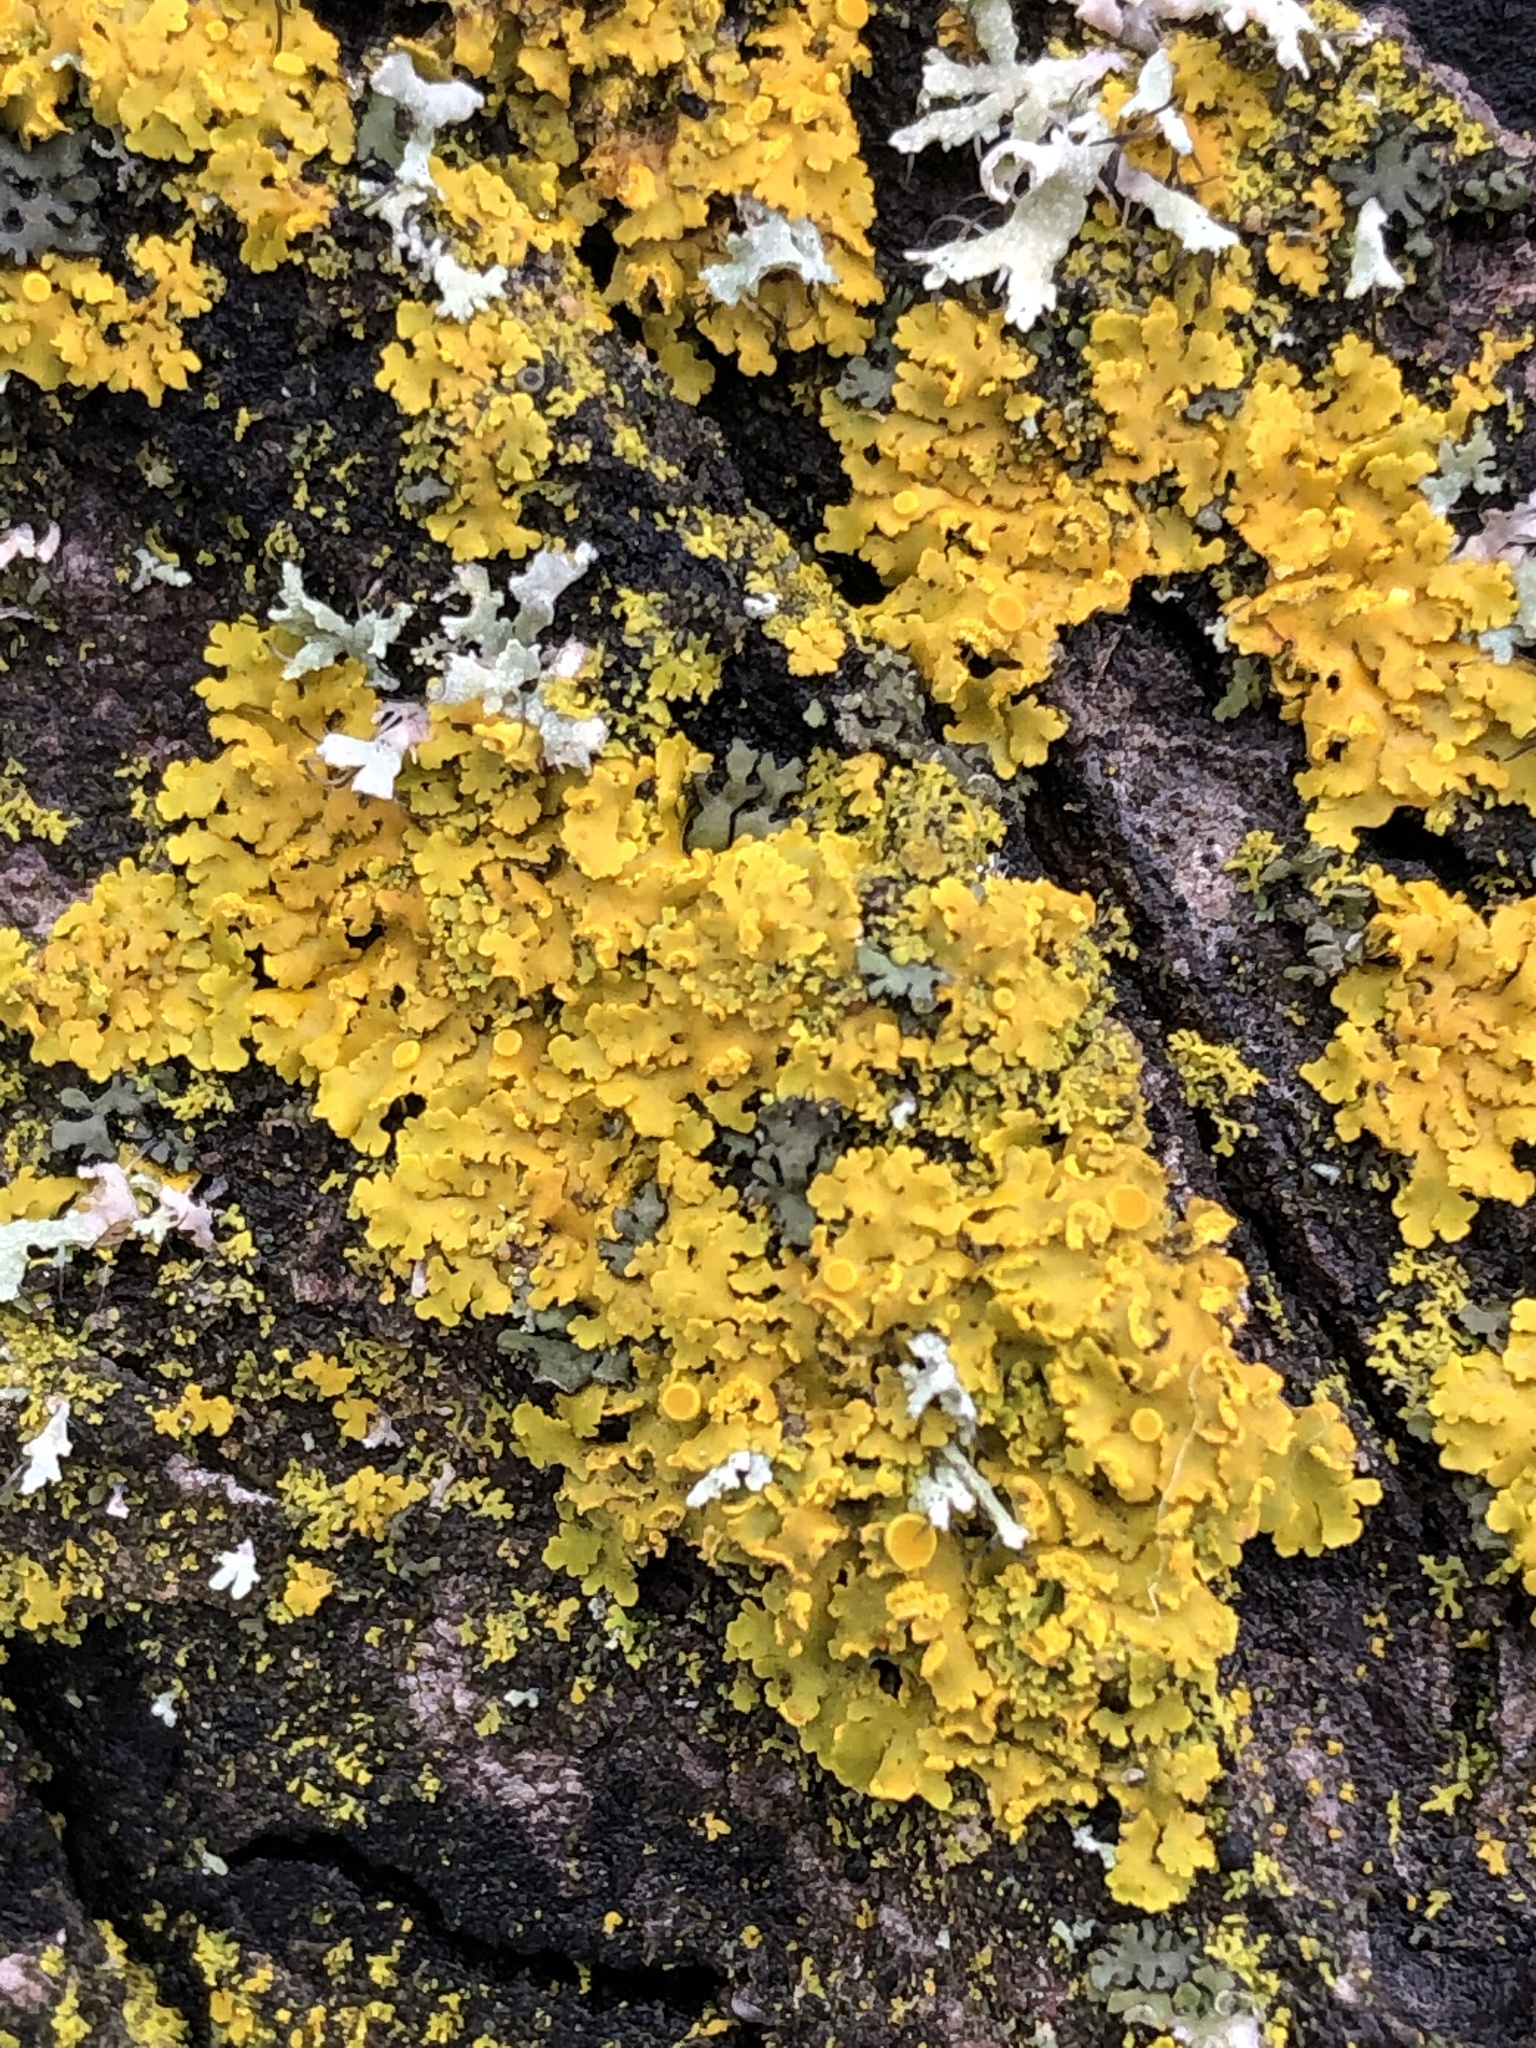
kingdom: Fungi
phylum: Ascomycota
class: Lecanoromycetes
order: Teloschistales
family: Teloschistaceae
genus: Xanthoria
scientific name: Xanthoria parietina
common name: Common orange lichen
